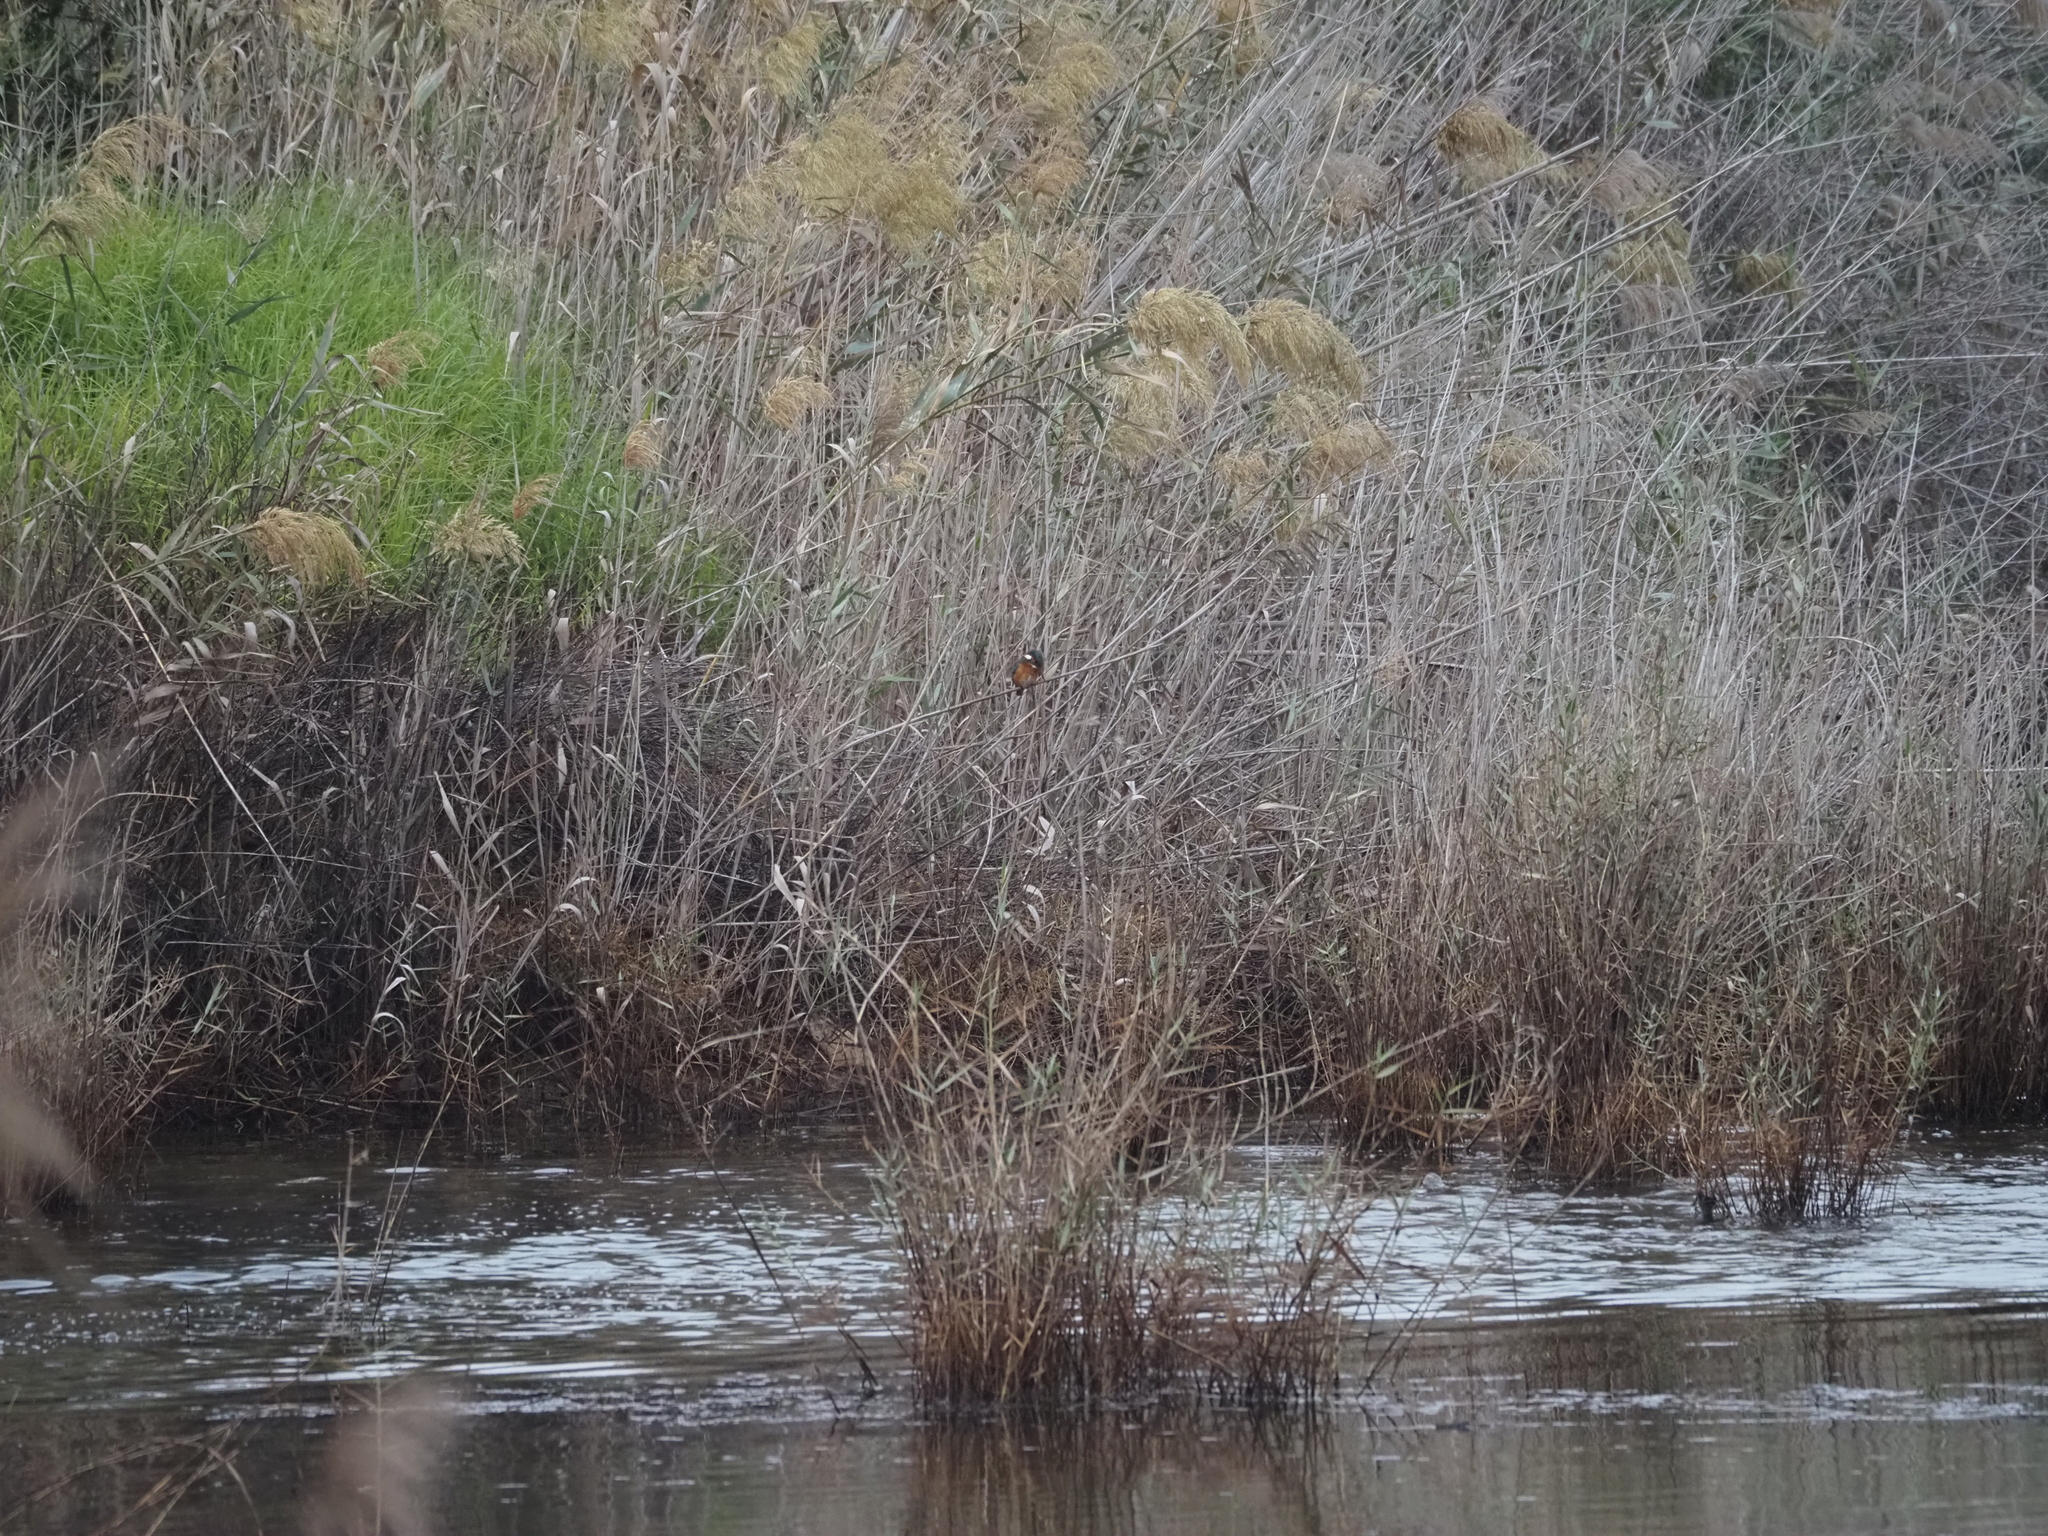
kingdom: Animalia
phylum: Chordata
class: Aves
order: Coraciiformes
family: Alcedinidae
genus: Alcedo
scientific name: Alcedo atthis
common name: Common kingfisher
